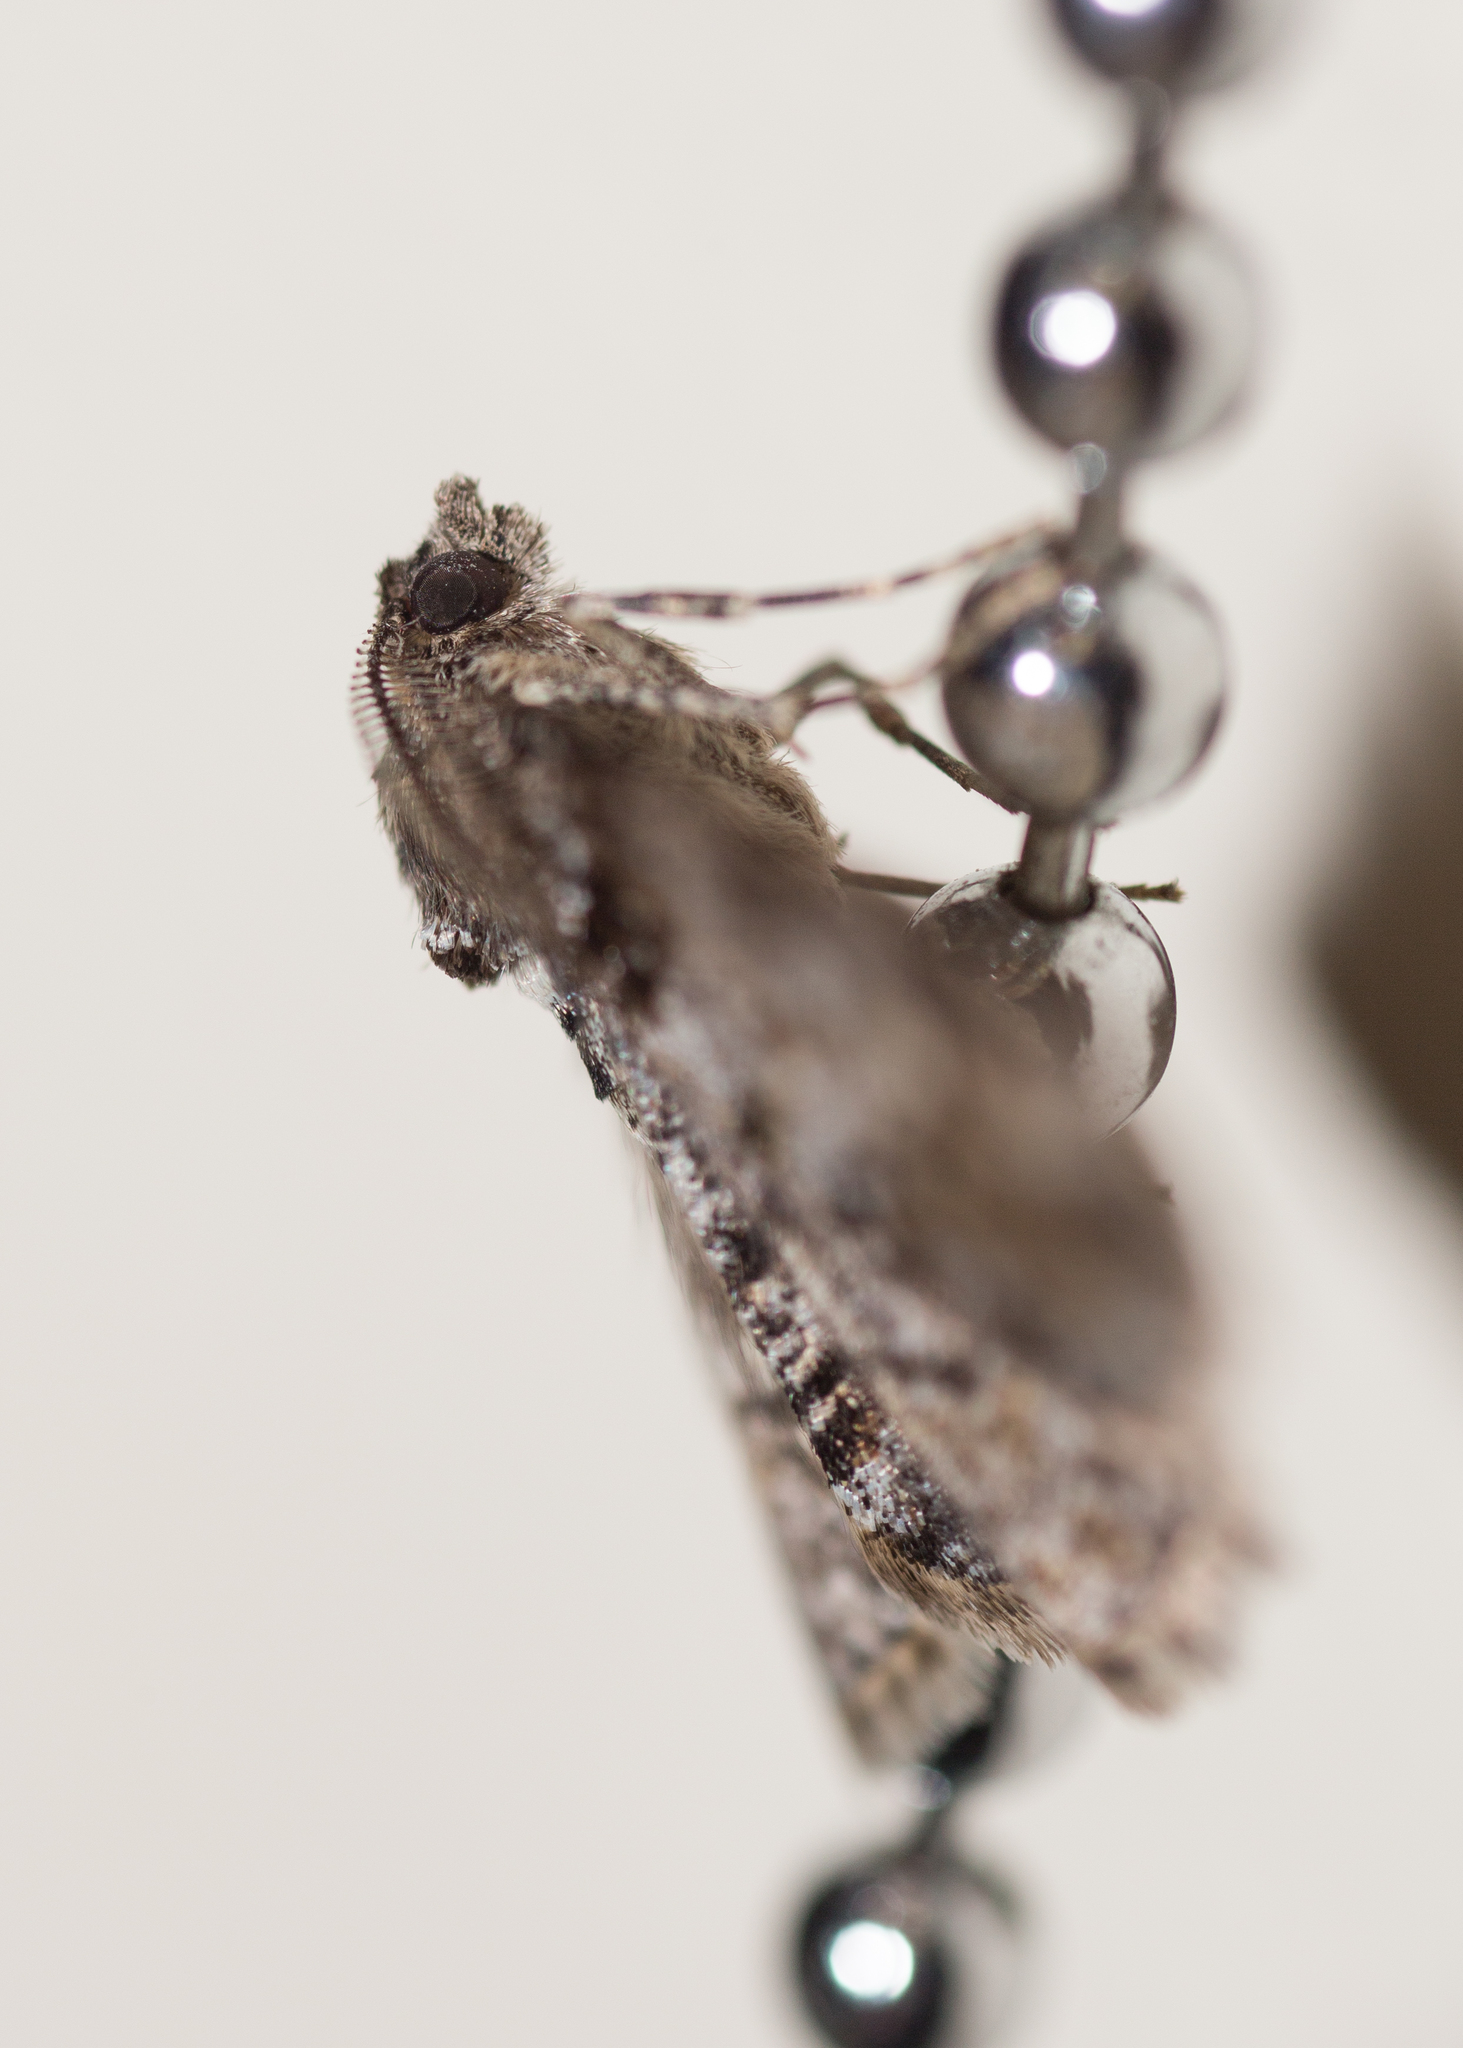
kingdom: Animalia
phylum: Arthropoda
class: Insecta
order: Lepidoptera
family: Geometridae
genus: Cleora
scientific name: Cleora cinctaria
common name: Ringed carpet
